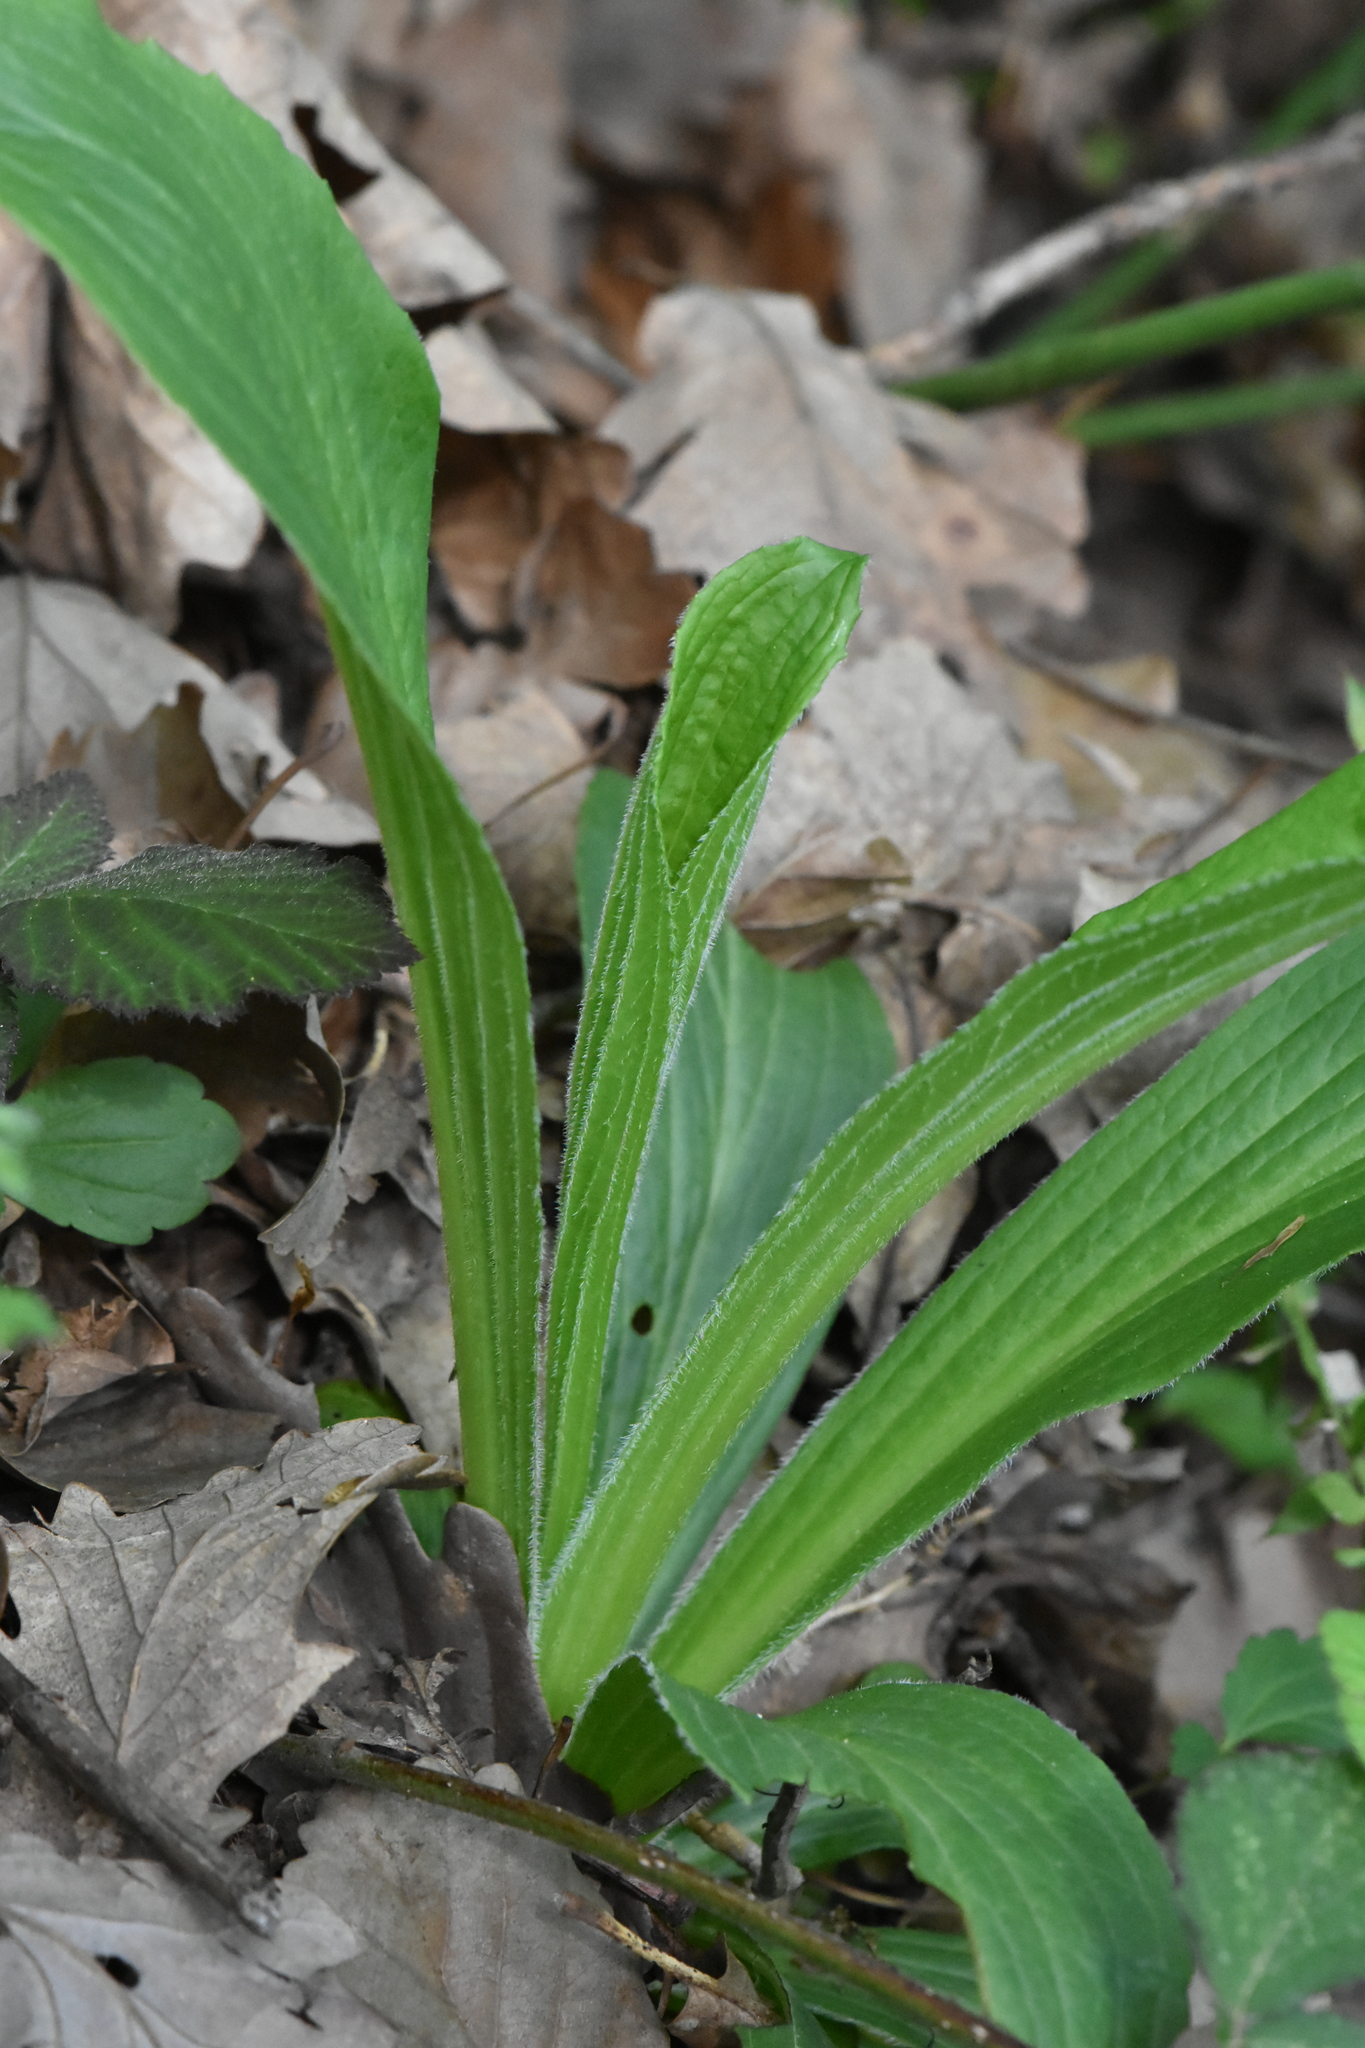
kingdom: Plantae
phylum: Tracheophyta
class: Magnoliopsida
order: Boraginales
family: Boraginaceae
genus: Cynoglossum
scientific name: Cynoglossum officinale
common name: Hound's-tongue
